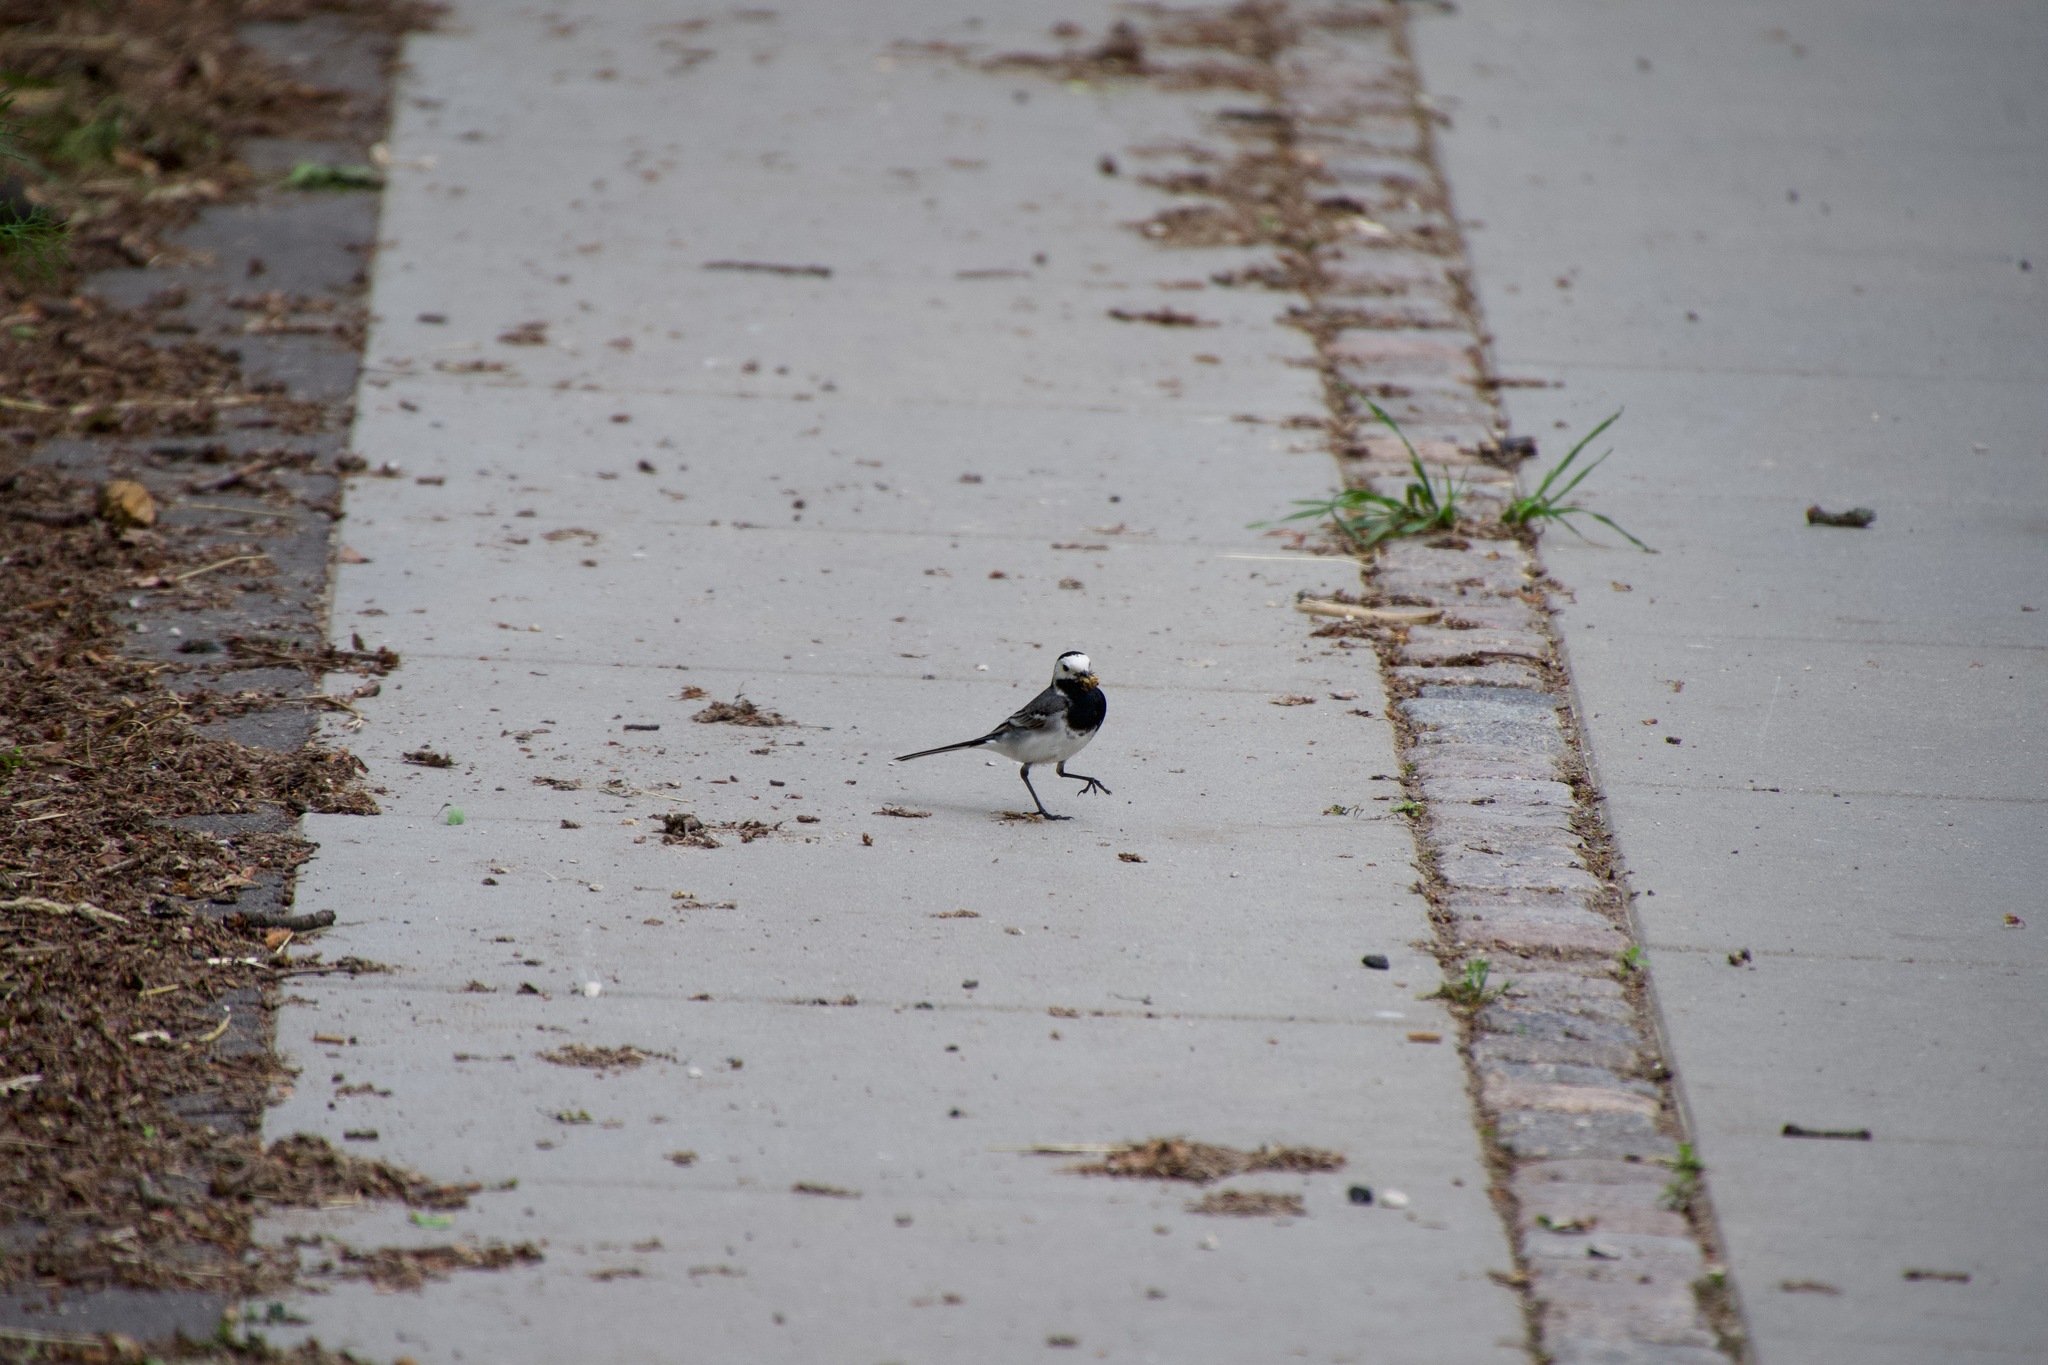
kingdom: Animalia
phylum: Chordata
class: Aves
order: Passeriformes
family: Motacillidae
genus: Motacilla
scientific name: Motacilla alba
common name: White wagtail
